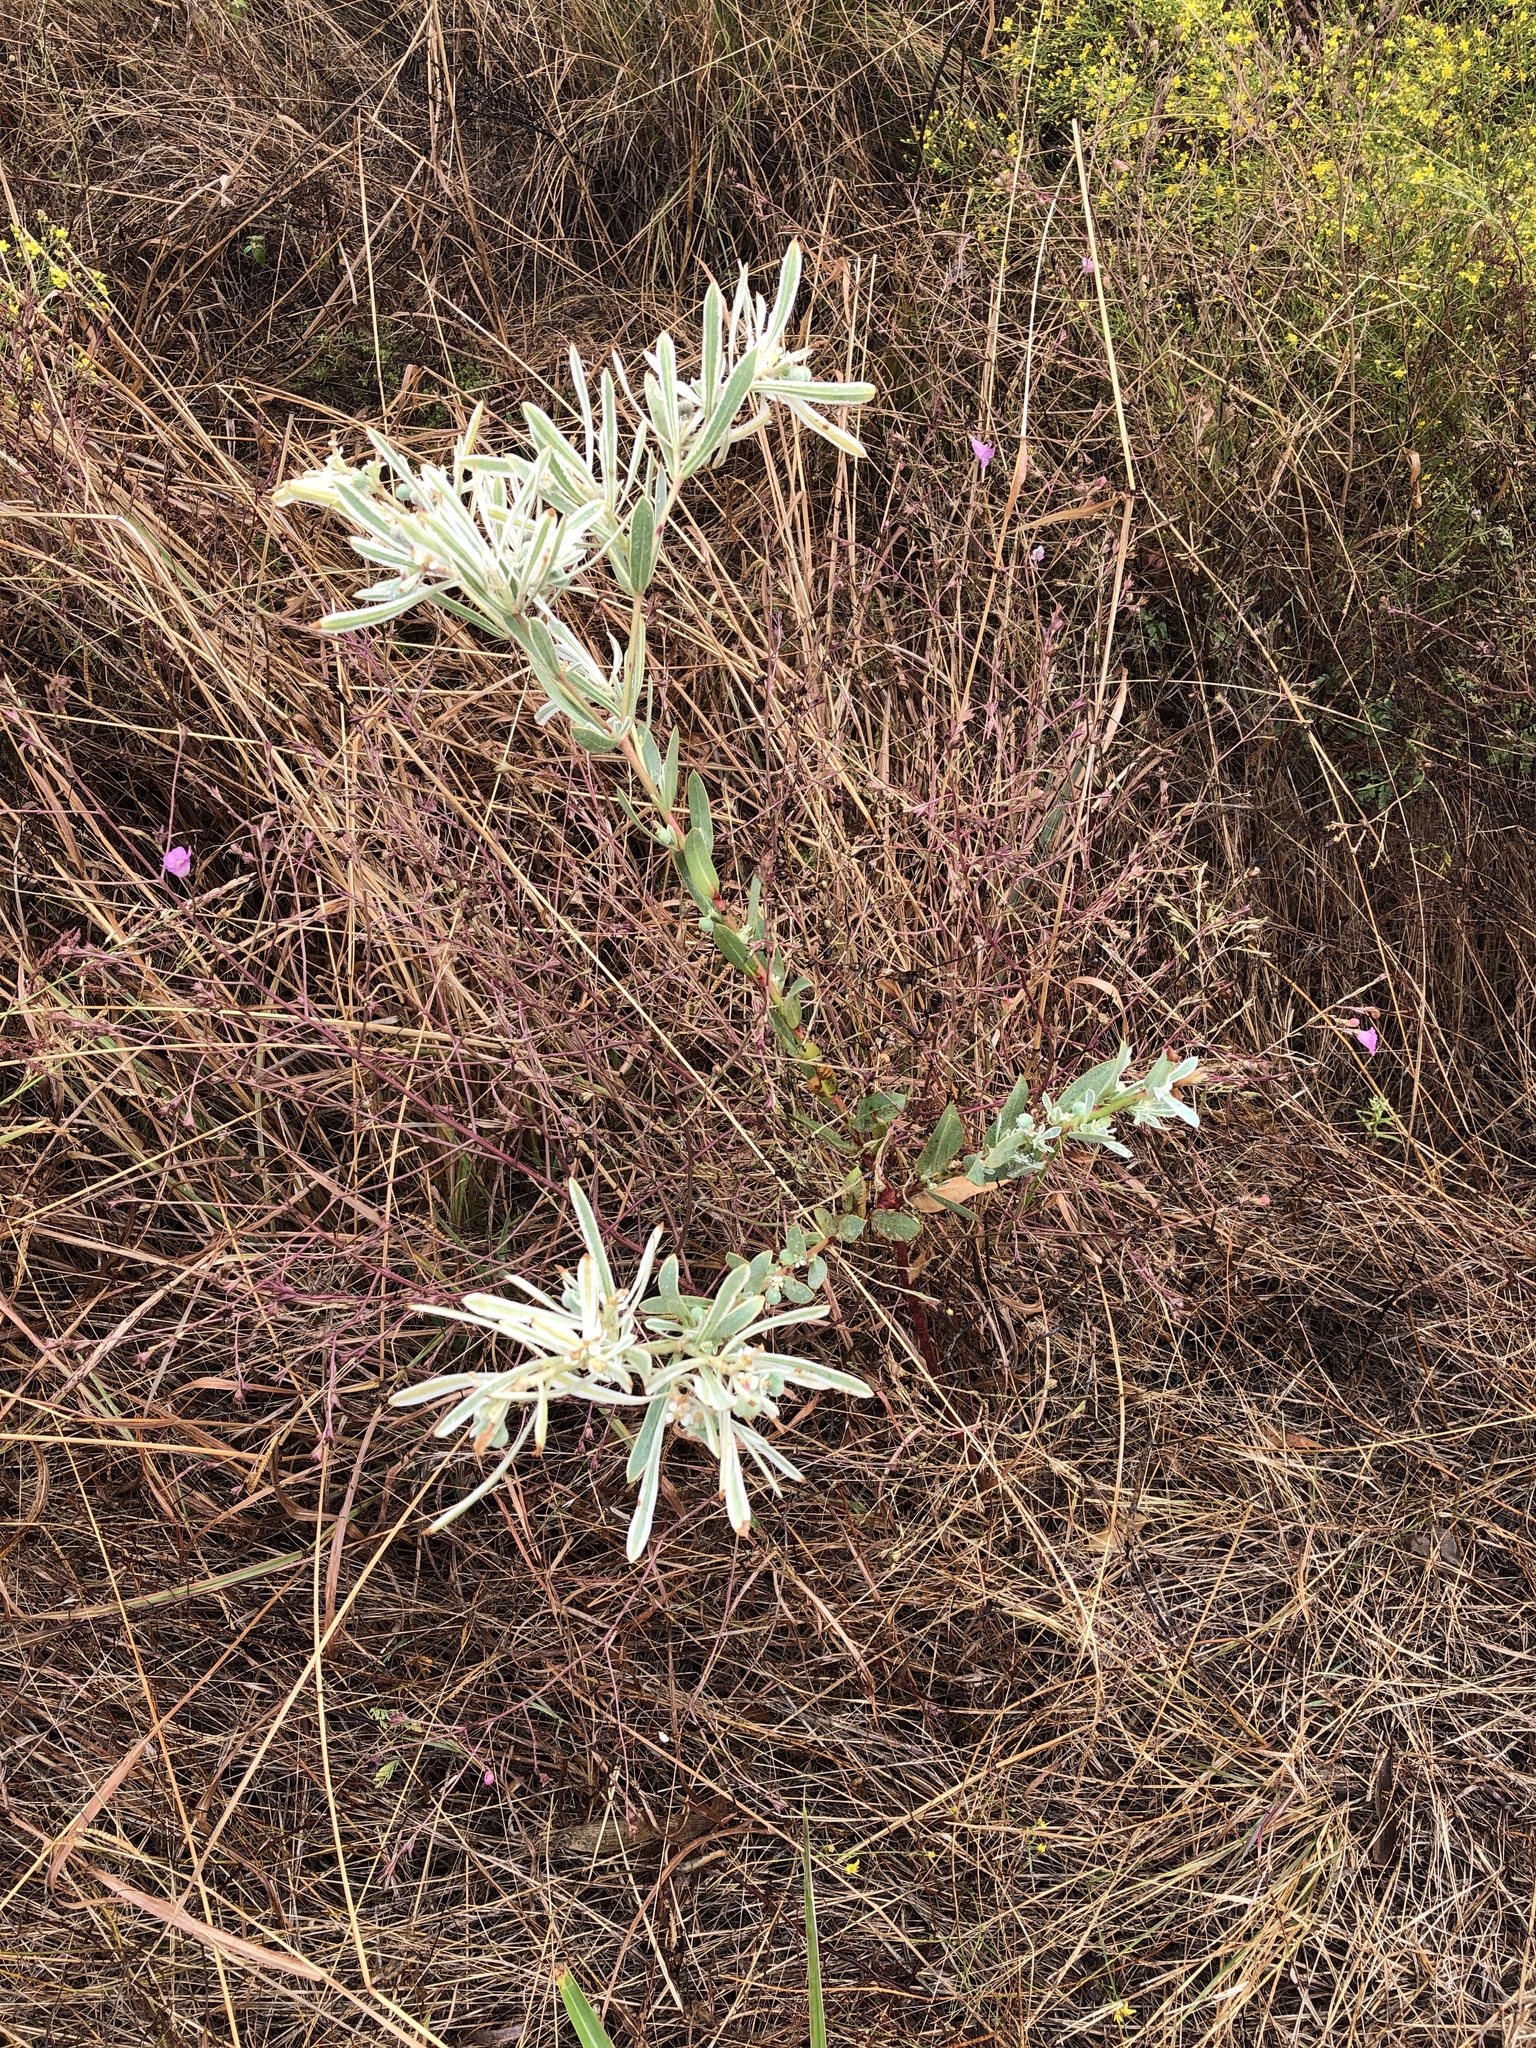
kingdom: Plantae
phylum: Tracheophyta
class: Magnoliopsida
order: Malpighiales
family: Euphorbiaceae
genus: Euphorbia
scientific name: Euphorbia bicolor
